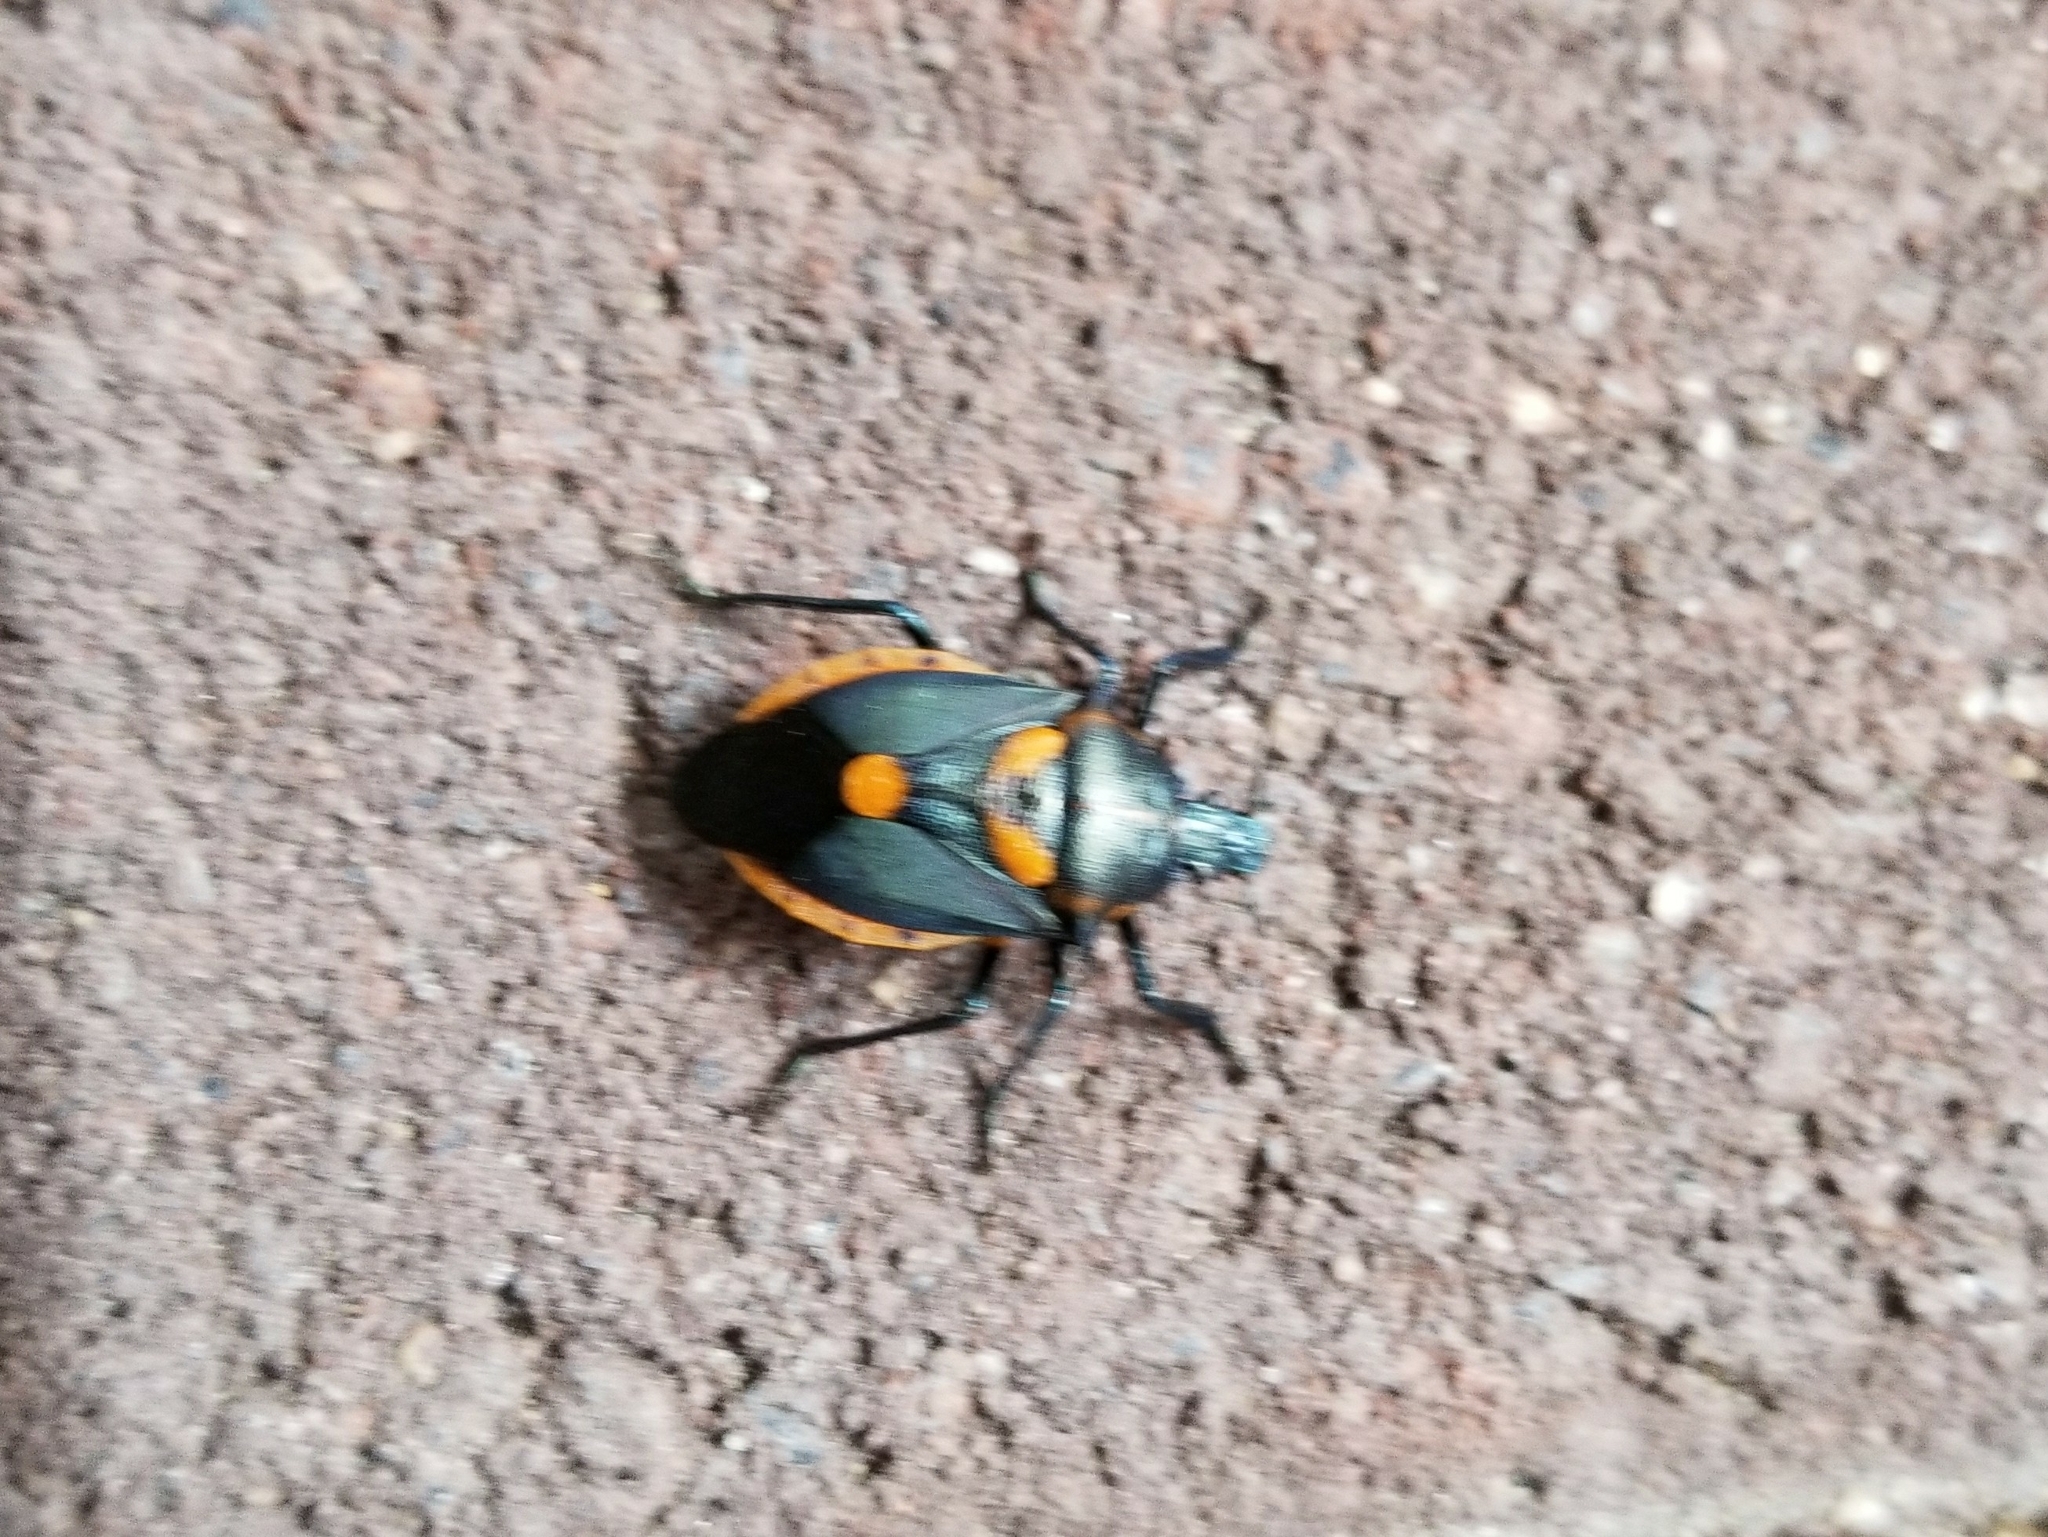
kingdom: Animalia
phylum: Arthropoda
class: Insecta
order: Hemiptera
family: Pentatomidae
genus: Euthyrhynchus
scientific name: Euthyrhynchus floridanus
